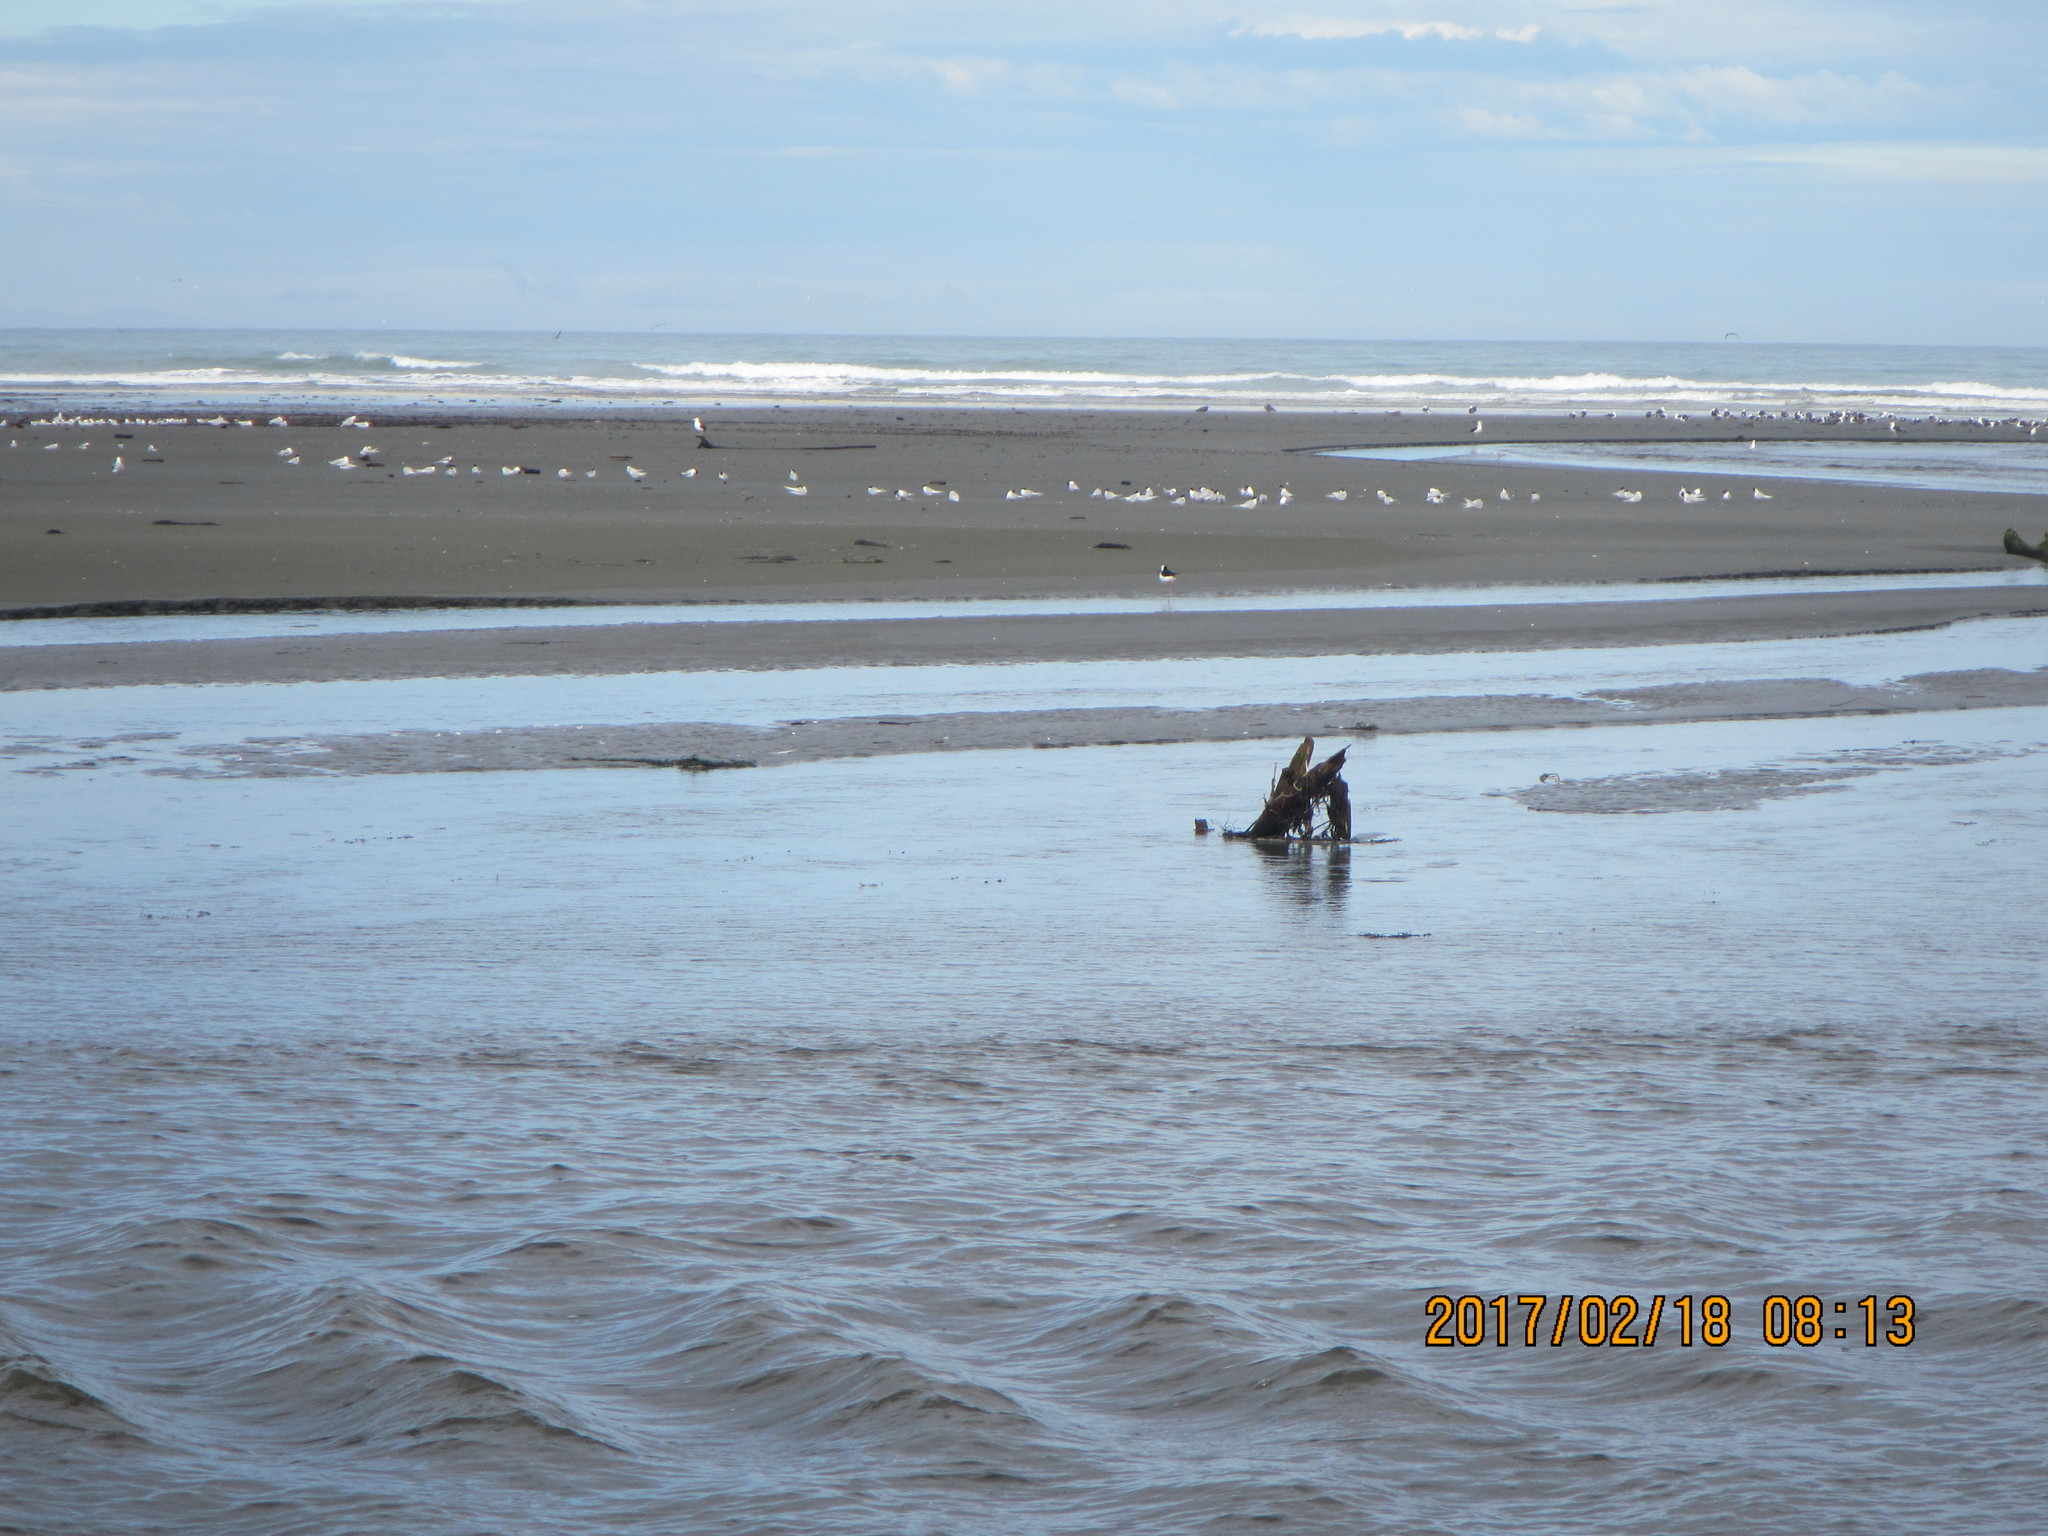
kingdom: Animalia
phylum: Chordata
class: Aves
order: Charadriiformes
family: Recurvirostridae
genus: Himantopus
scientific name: Himantopus leucocephalus
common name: White-headed stilt
